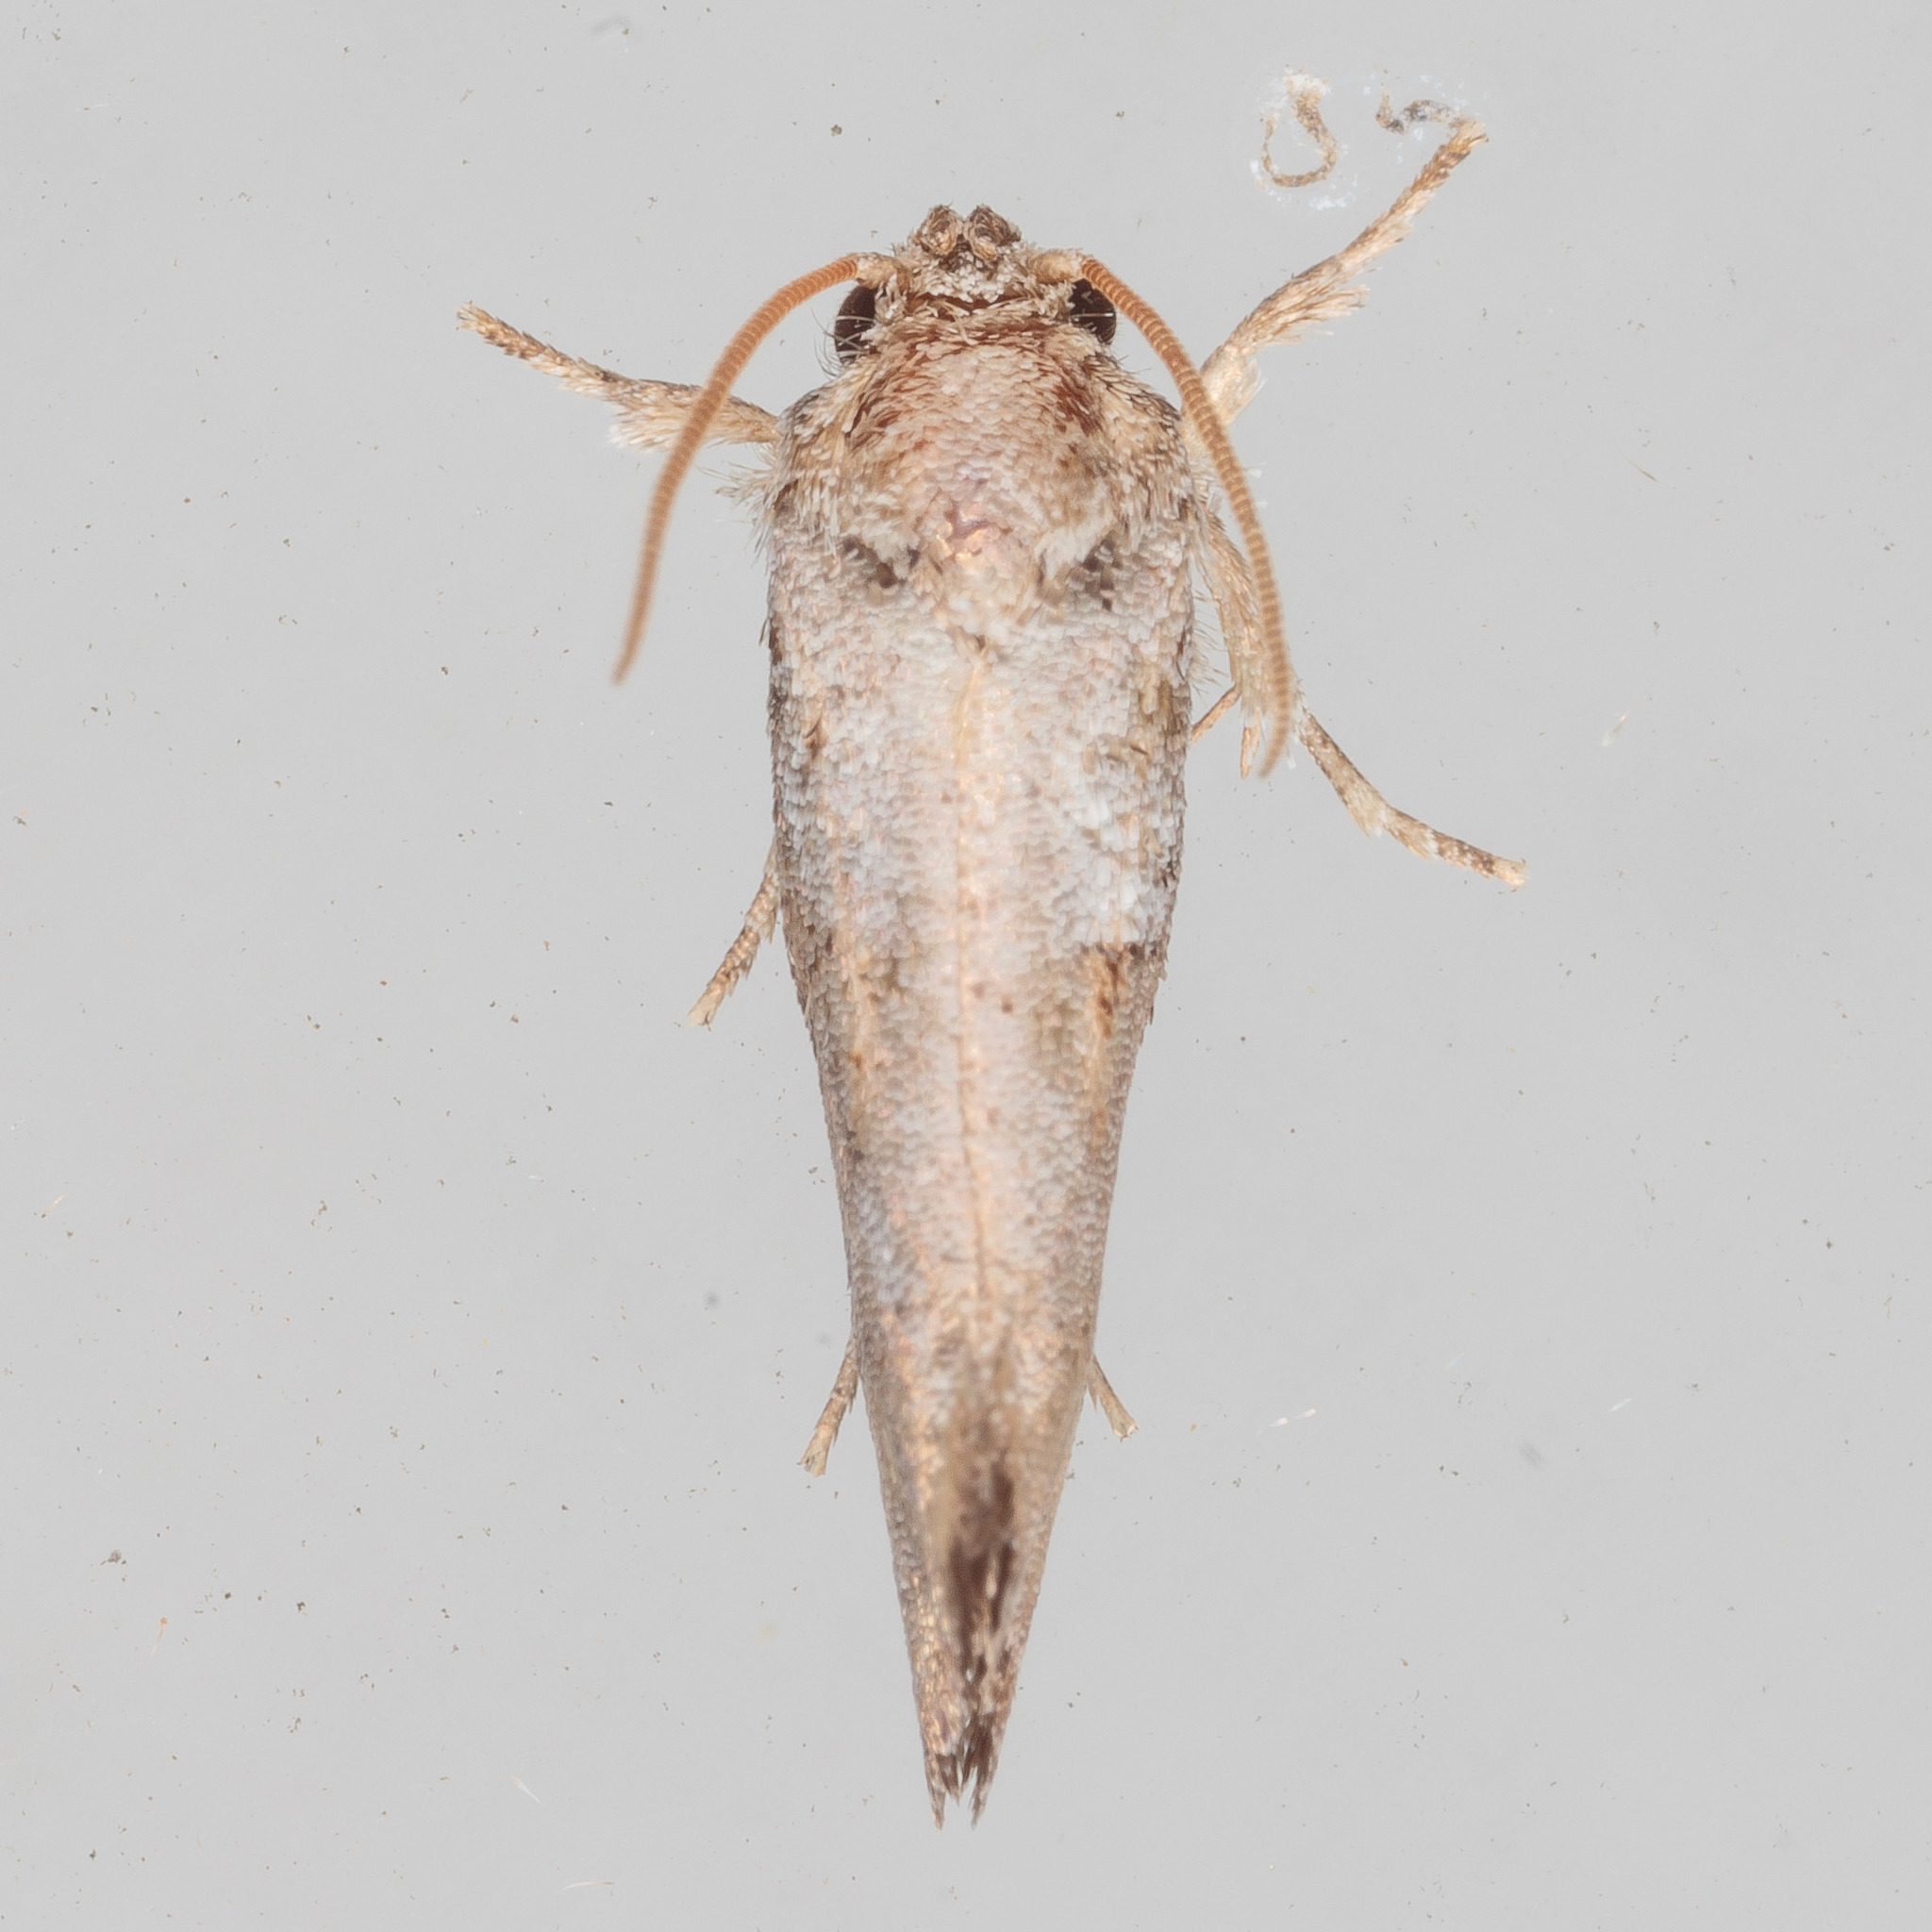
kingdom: Animalia
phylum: Arthropoda
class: Insecta
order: Lepidoptera
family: Tineidae
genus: Acrolophus
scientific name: Acrolophus piger
